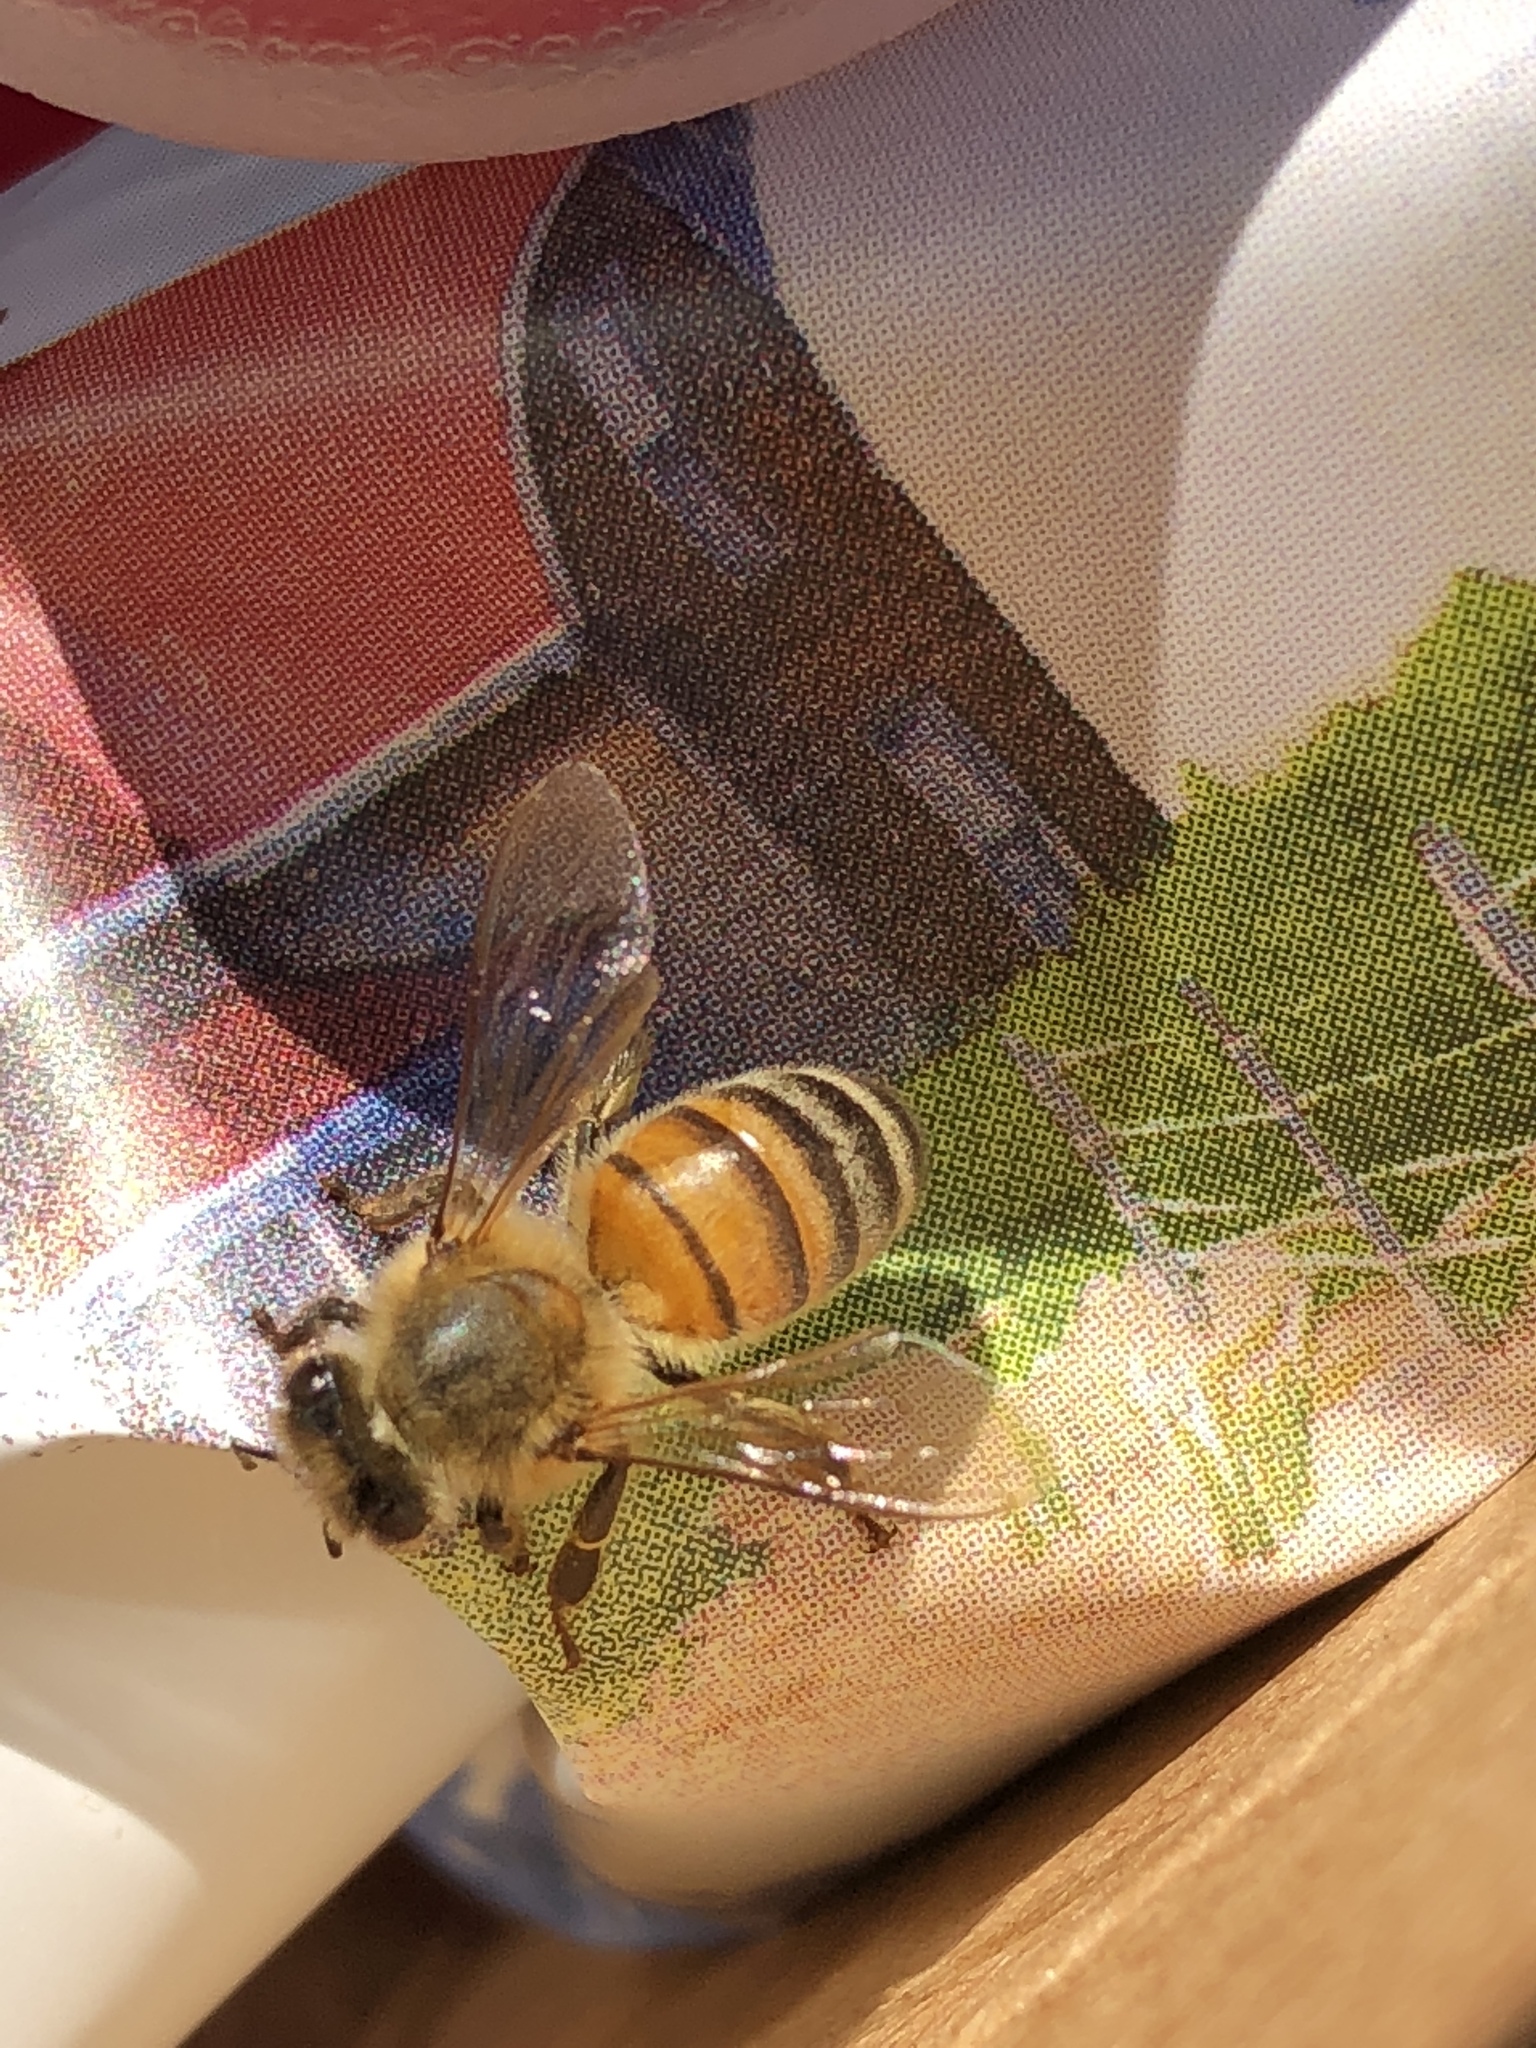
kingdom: Animalia
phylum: Arthropoda
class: Insecta
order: Hymenoptera
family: Apidae
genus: Apis
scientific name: Apis mellifera
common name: Honey bee
